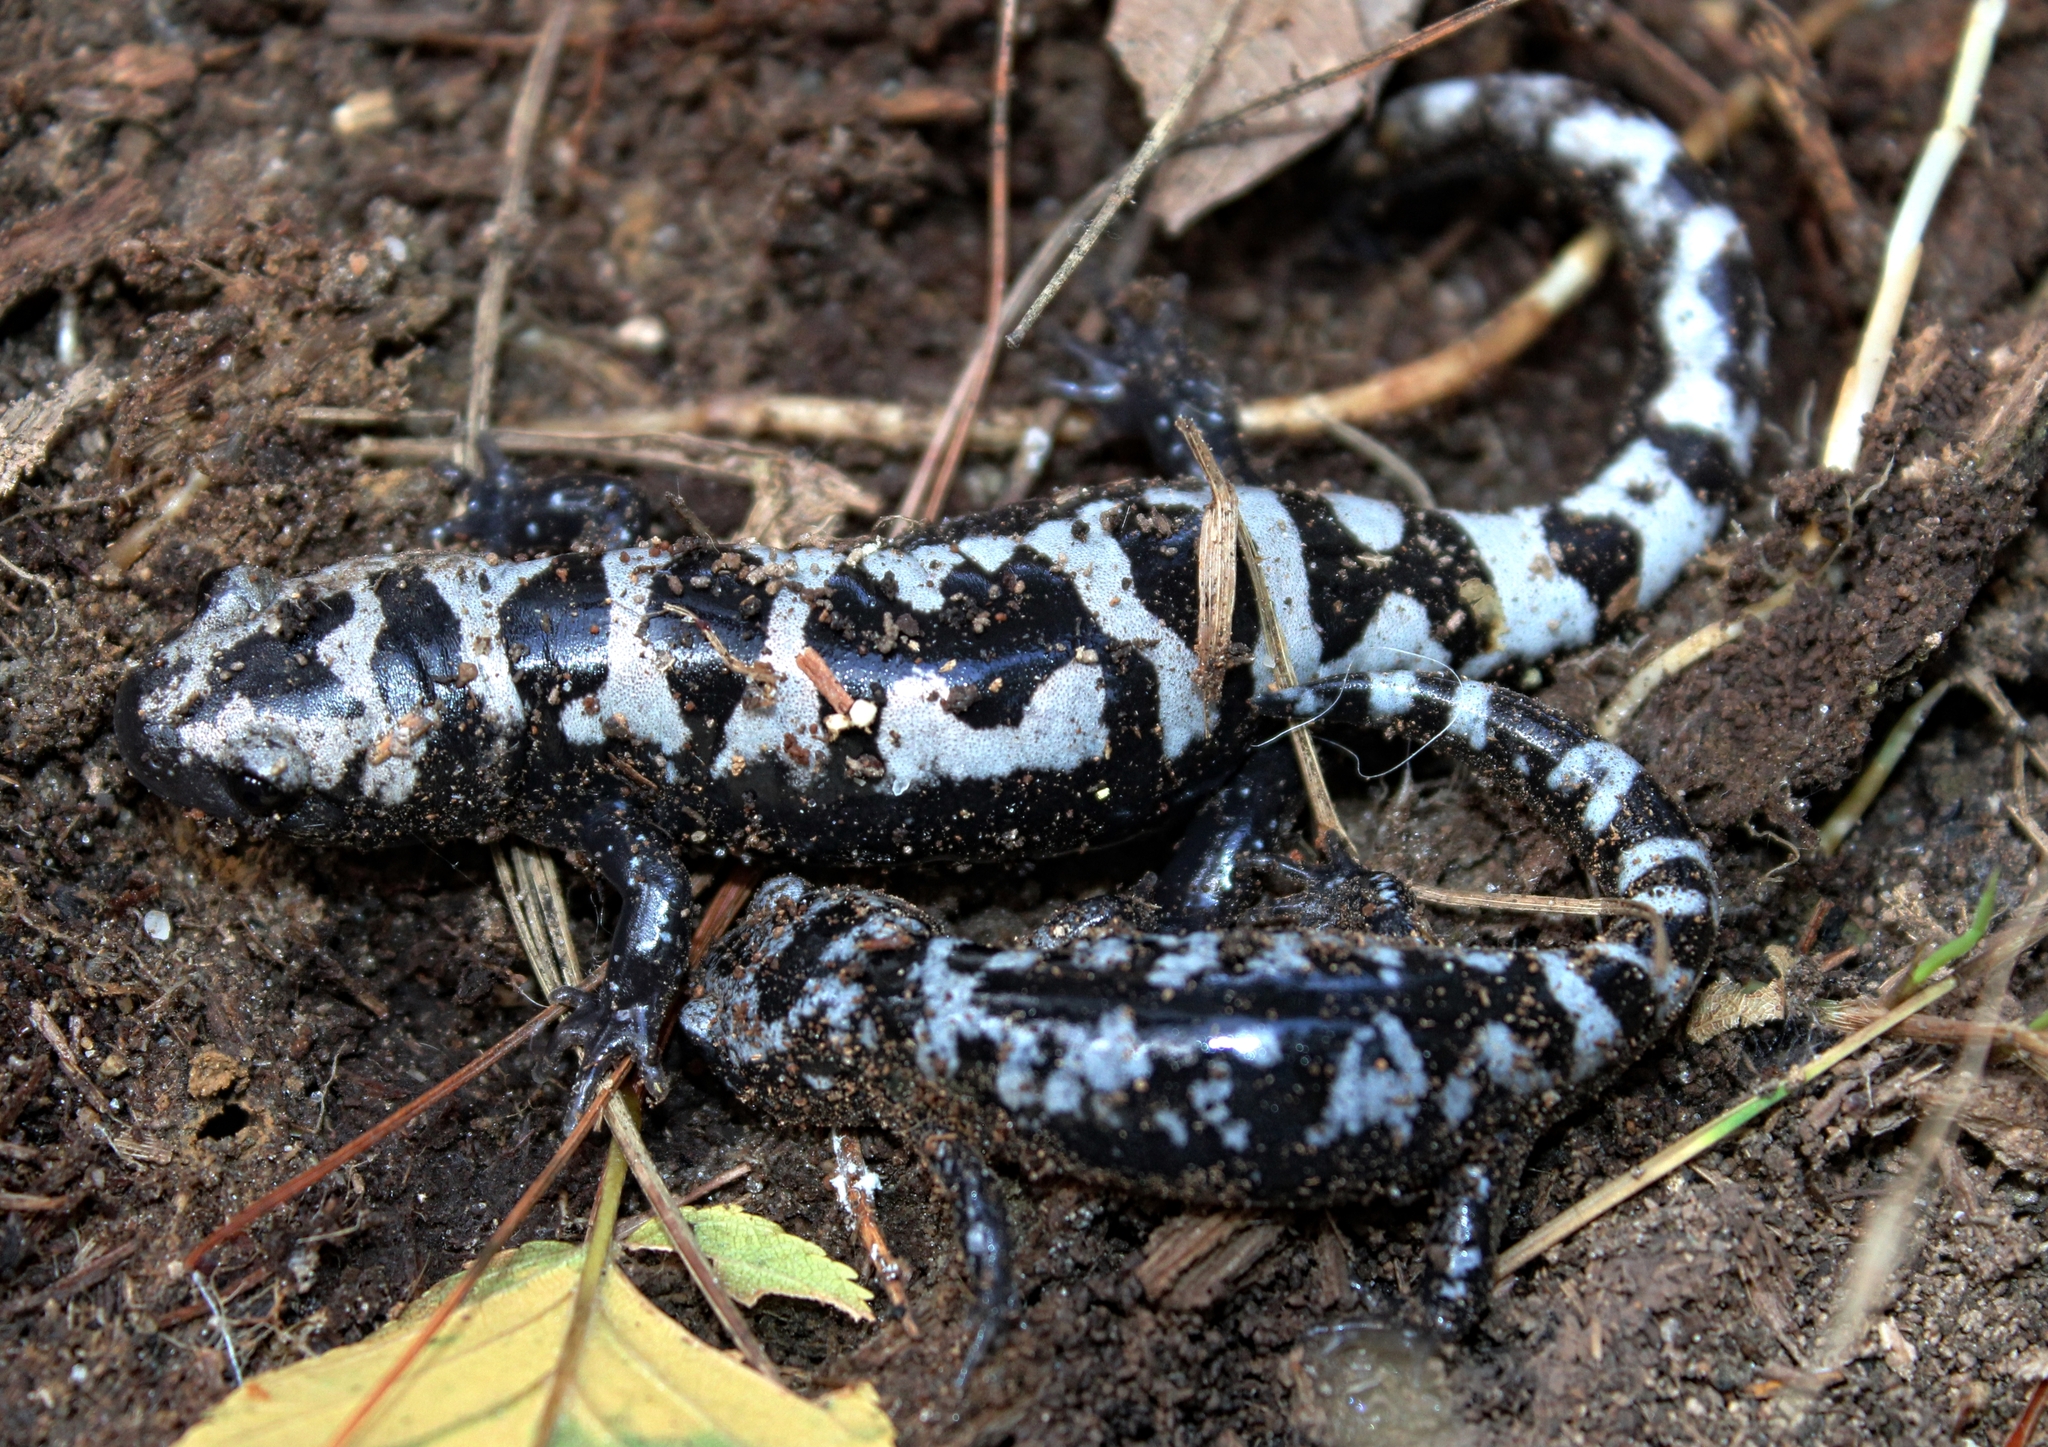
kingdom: Animalia
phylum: Chordata
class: Amphibia
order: Caudata
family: Ambystomatidae
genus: Ambystoma
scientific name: Ambystoma opacum
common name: Marbled salamander
